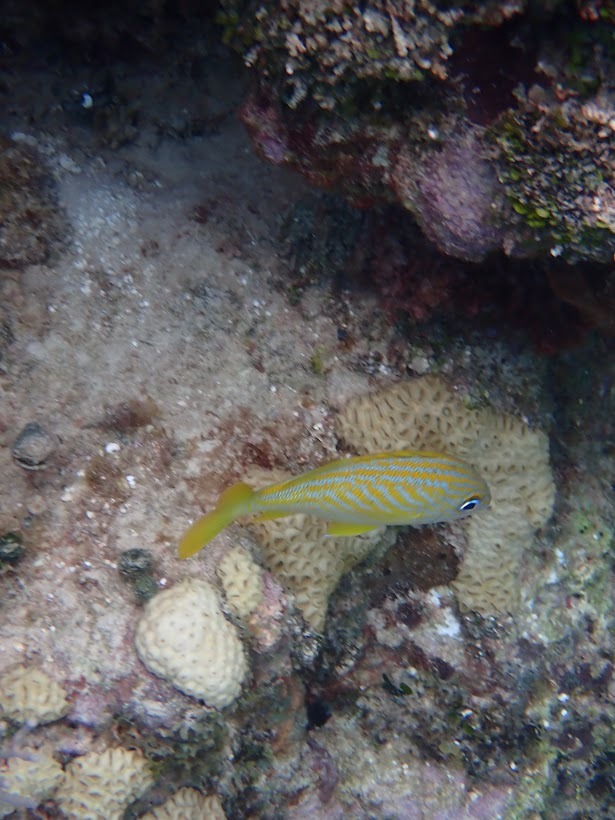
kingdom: Animalia
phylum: Chordata
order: Perciformes
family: Haemulidae
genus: Haemulon
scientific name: Haemulon flavolineatum
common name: French grunt
